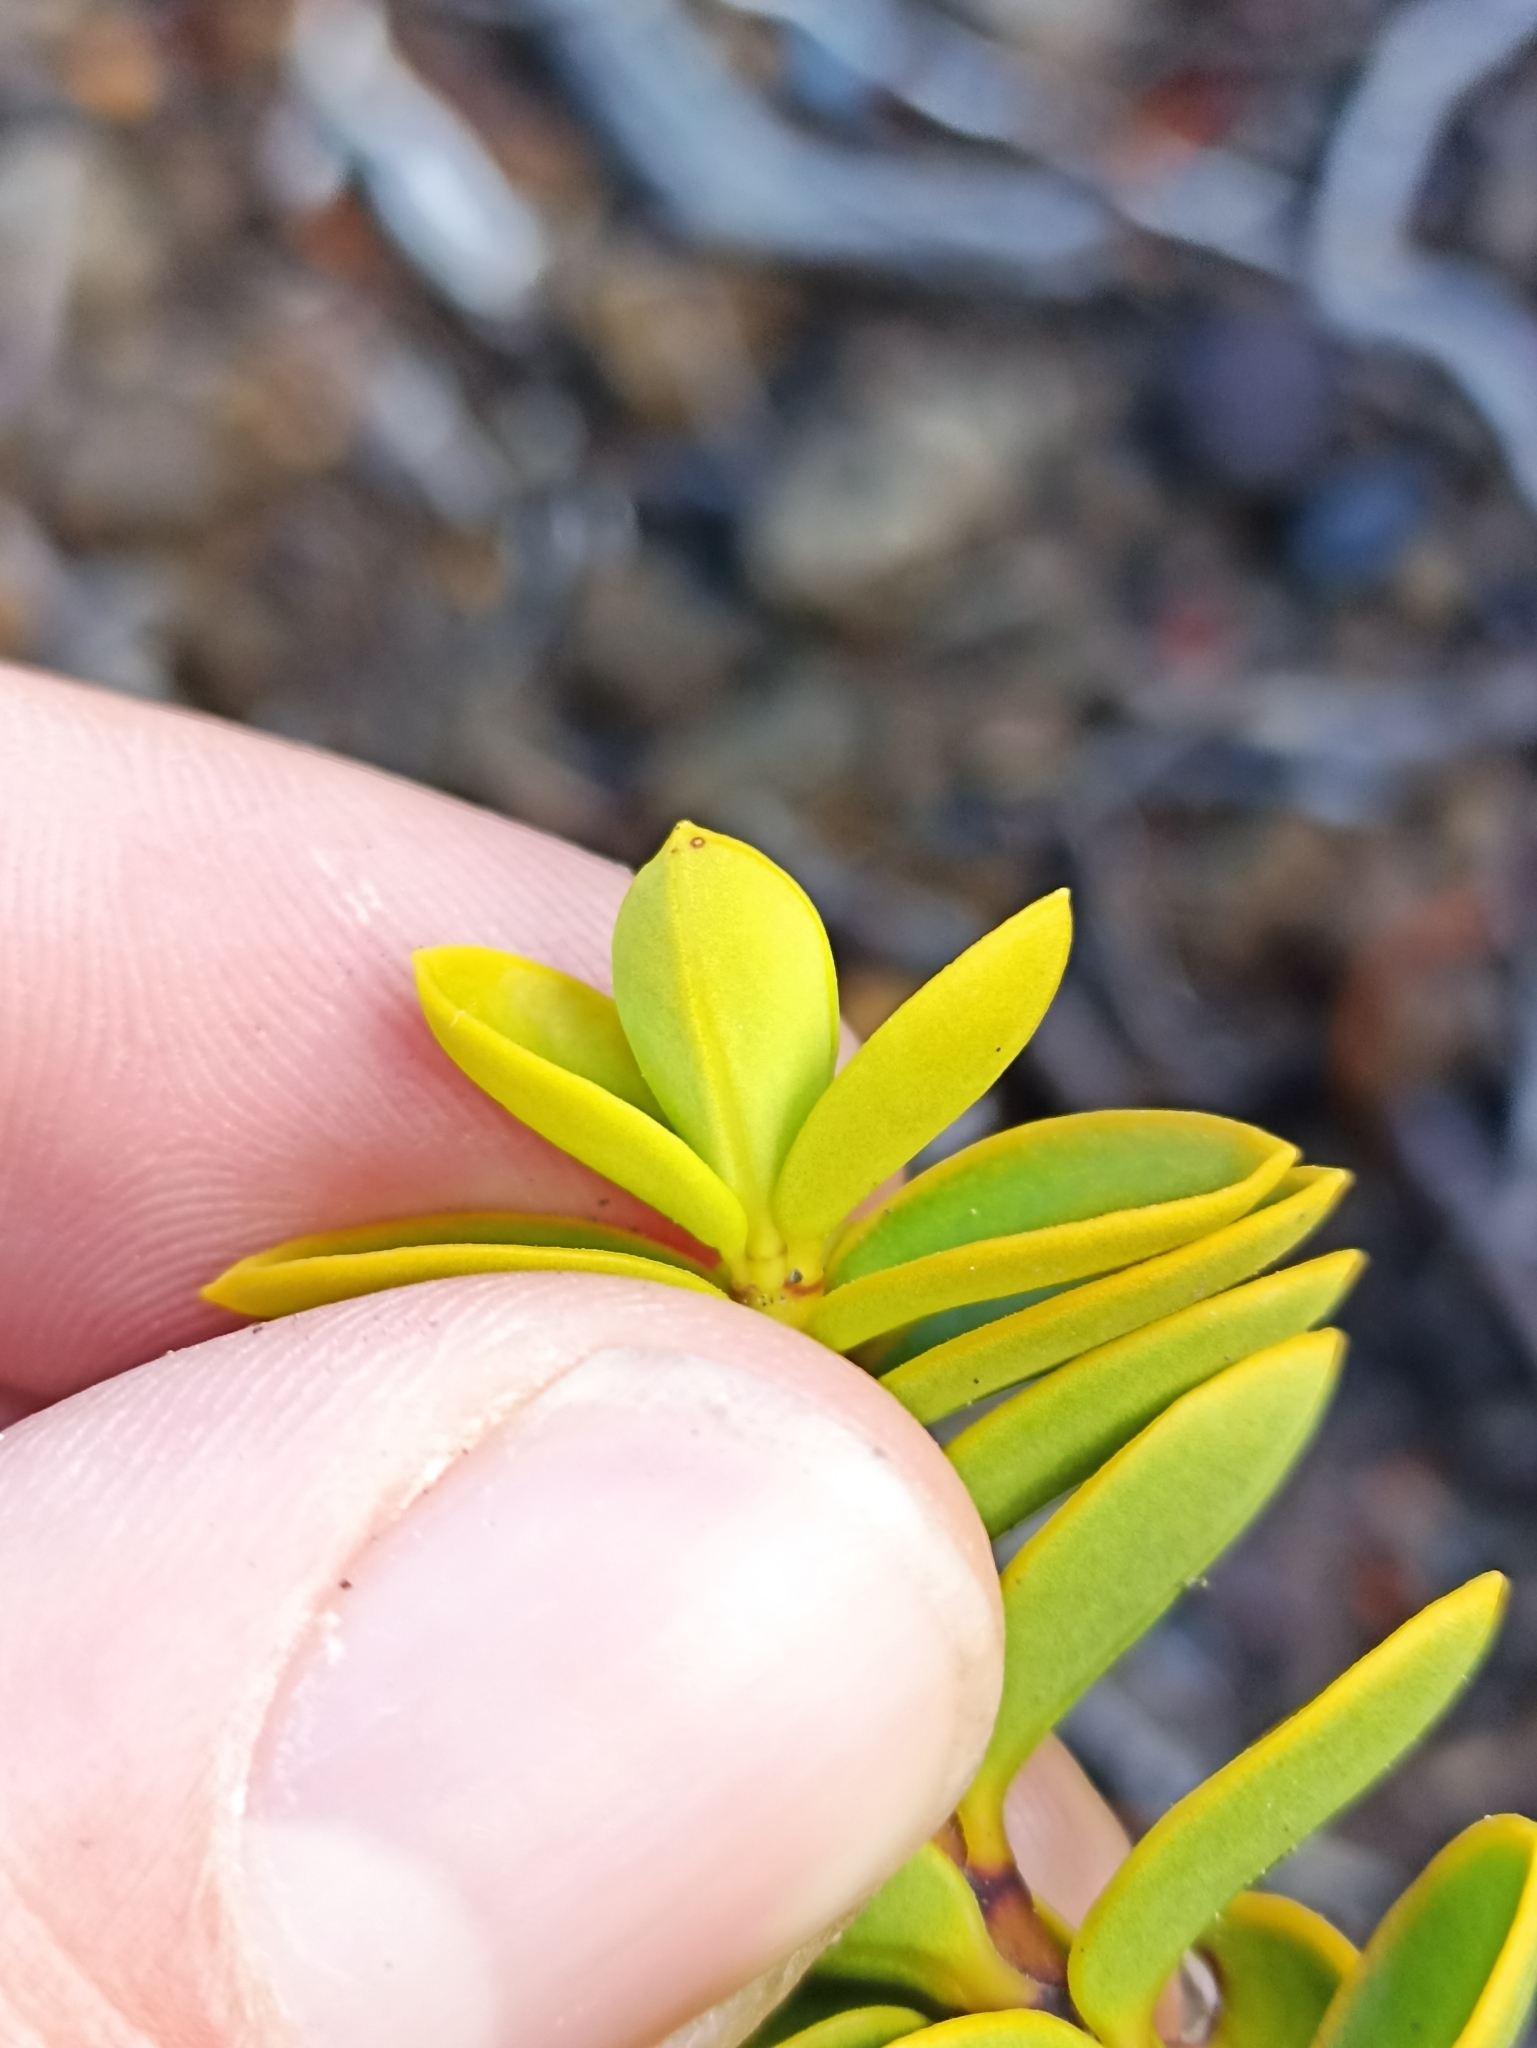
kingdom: Plantae
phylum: Tracheophyta
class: Magnoliopsida
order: Lamiales
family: Plantaginaceae
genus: Veronica
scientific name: Veronica venustula
